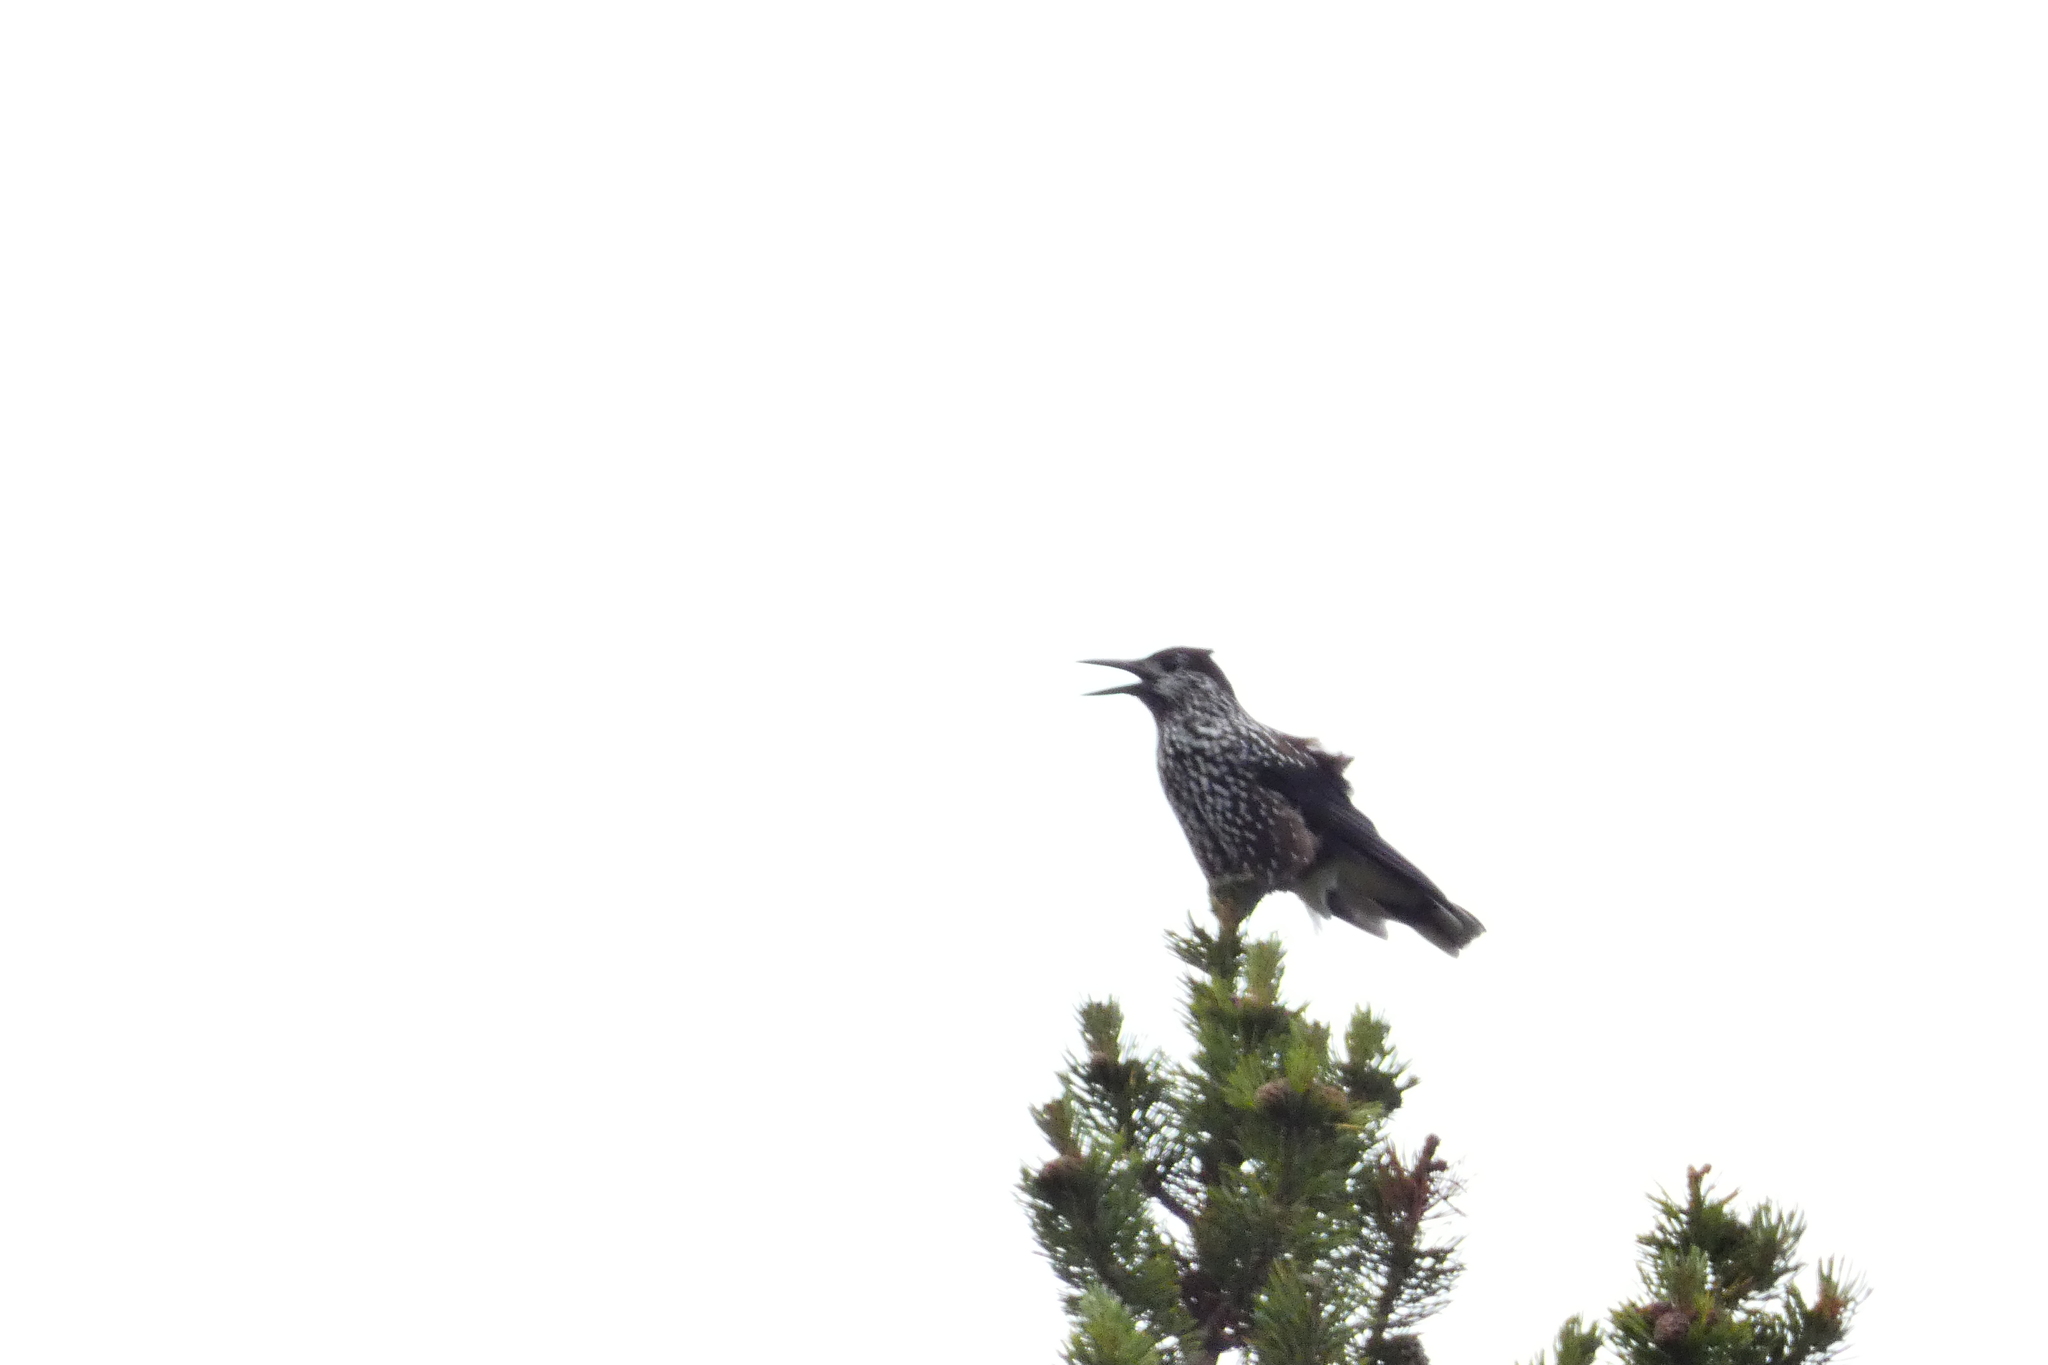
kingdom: Animalia
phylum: Chordata
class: Aves
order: Passeriformes
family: Corvidae
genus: Nucifraga
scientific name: Nucifraga caryocatactes
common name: Spotted nutcracker
